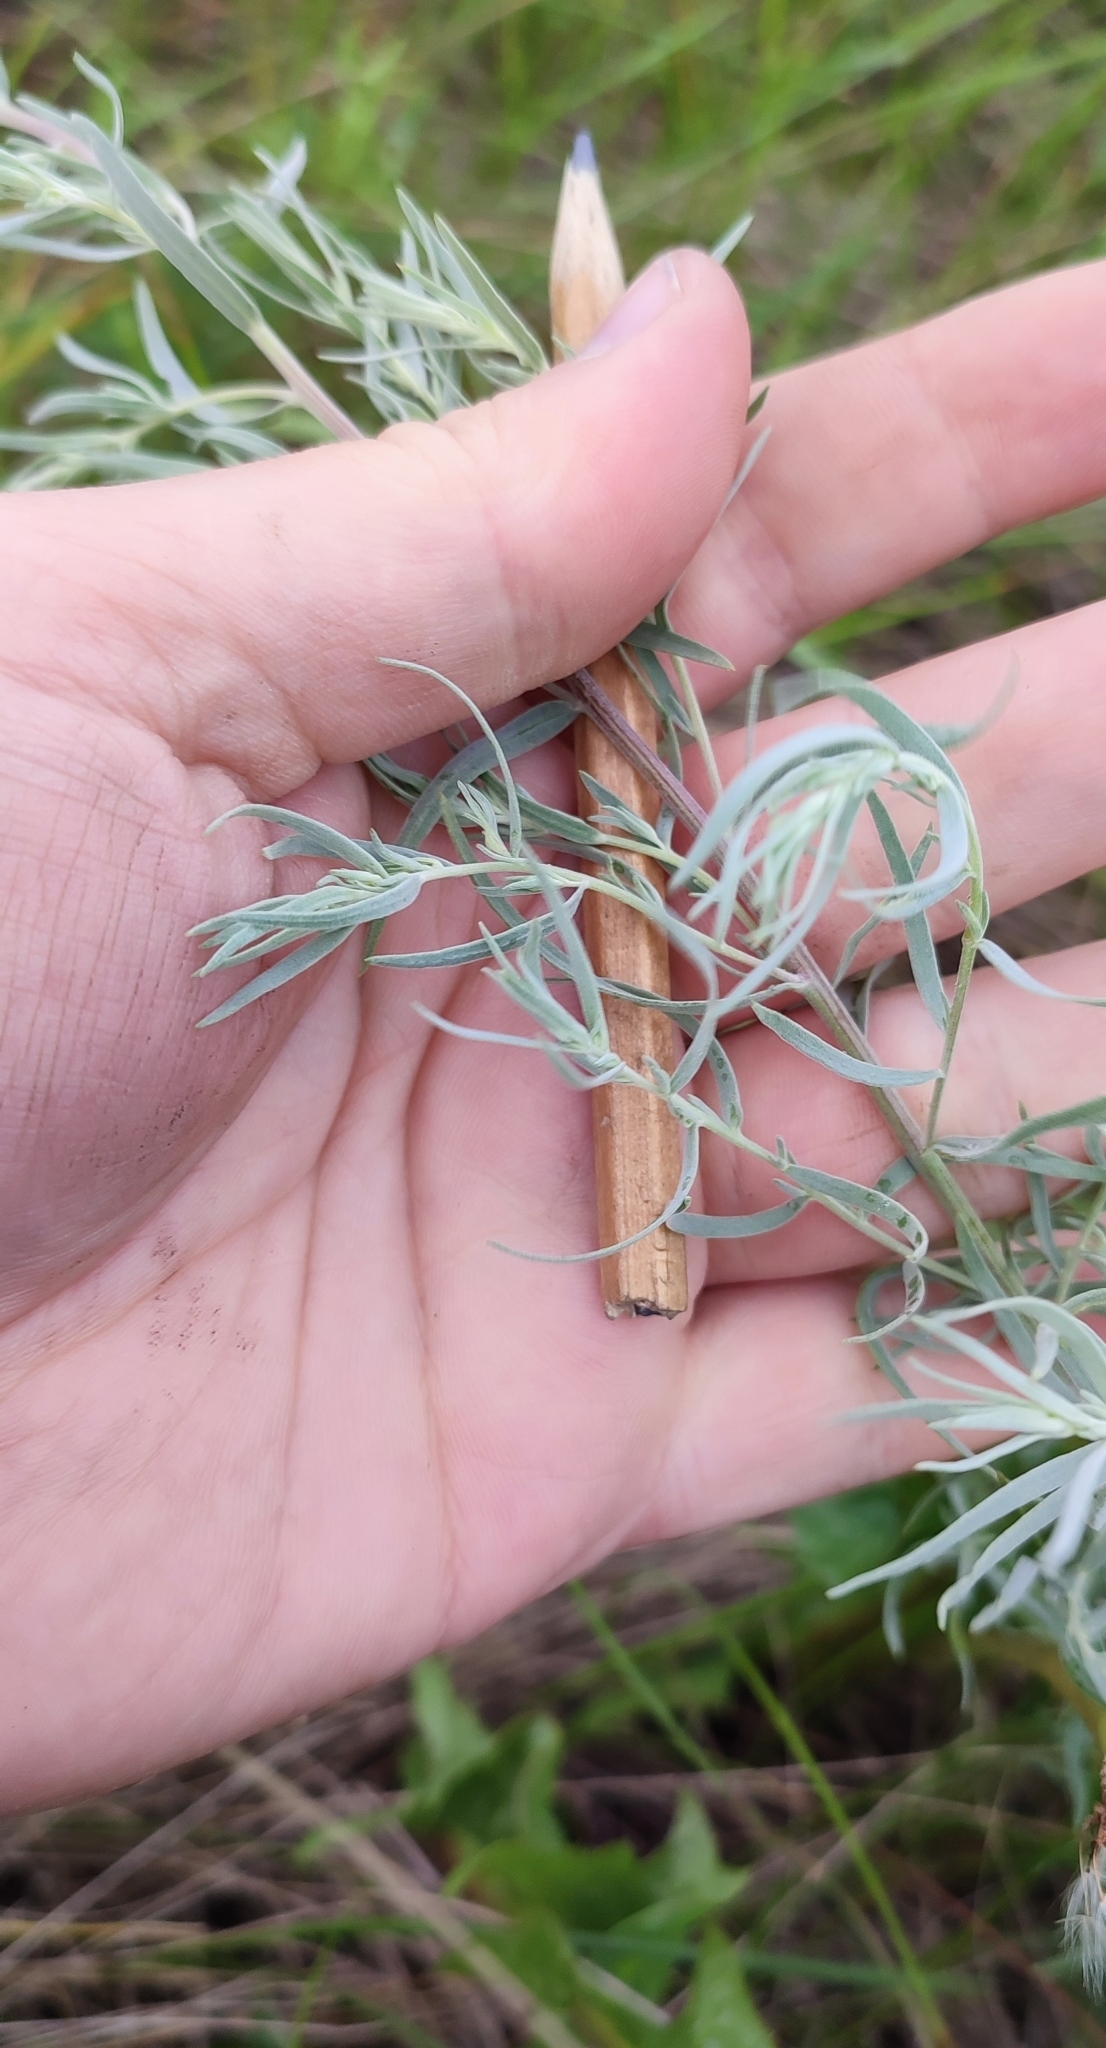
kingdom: Plantae
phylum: Tracheophyta
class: Magnoliopsida
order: Asterales
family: Asteraceae
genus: Artemisia
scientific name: Artemisia glauca
